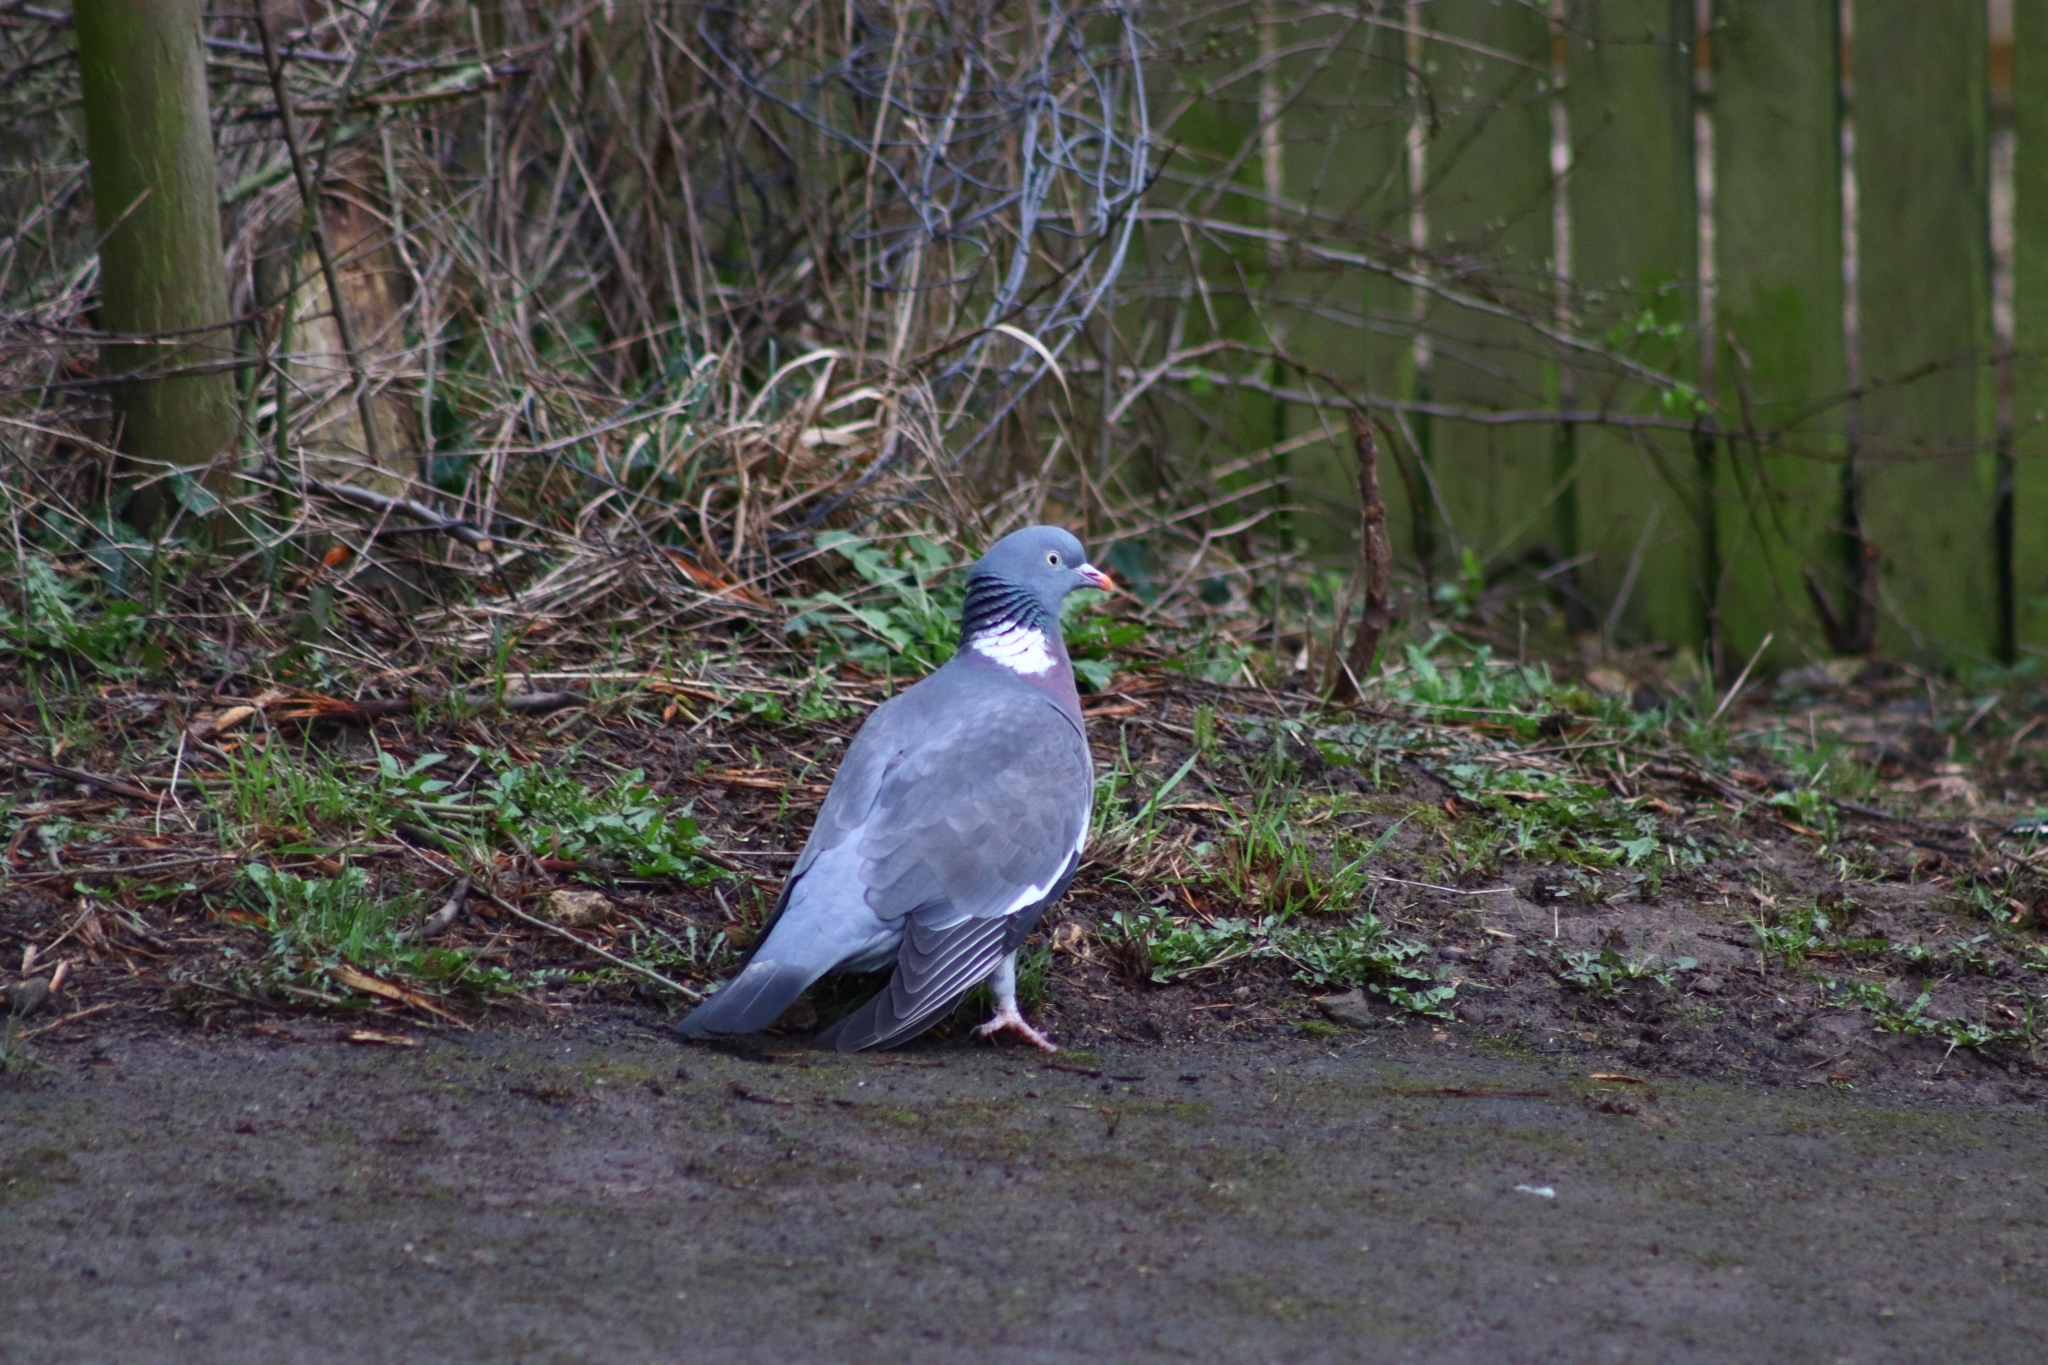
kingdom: Animalia
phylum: Chordata
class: Aves
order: Columbiformes
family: Columbidae
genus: Columba
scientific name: Columba palumbus
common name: Common wood pigeon
